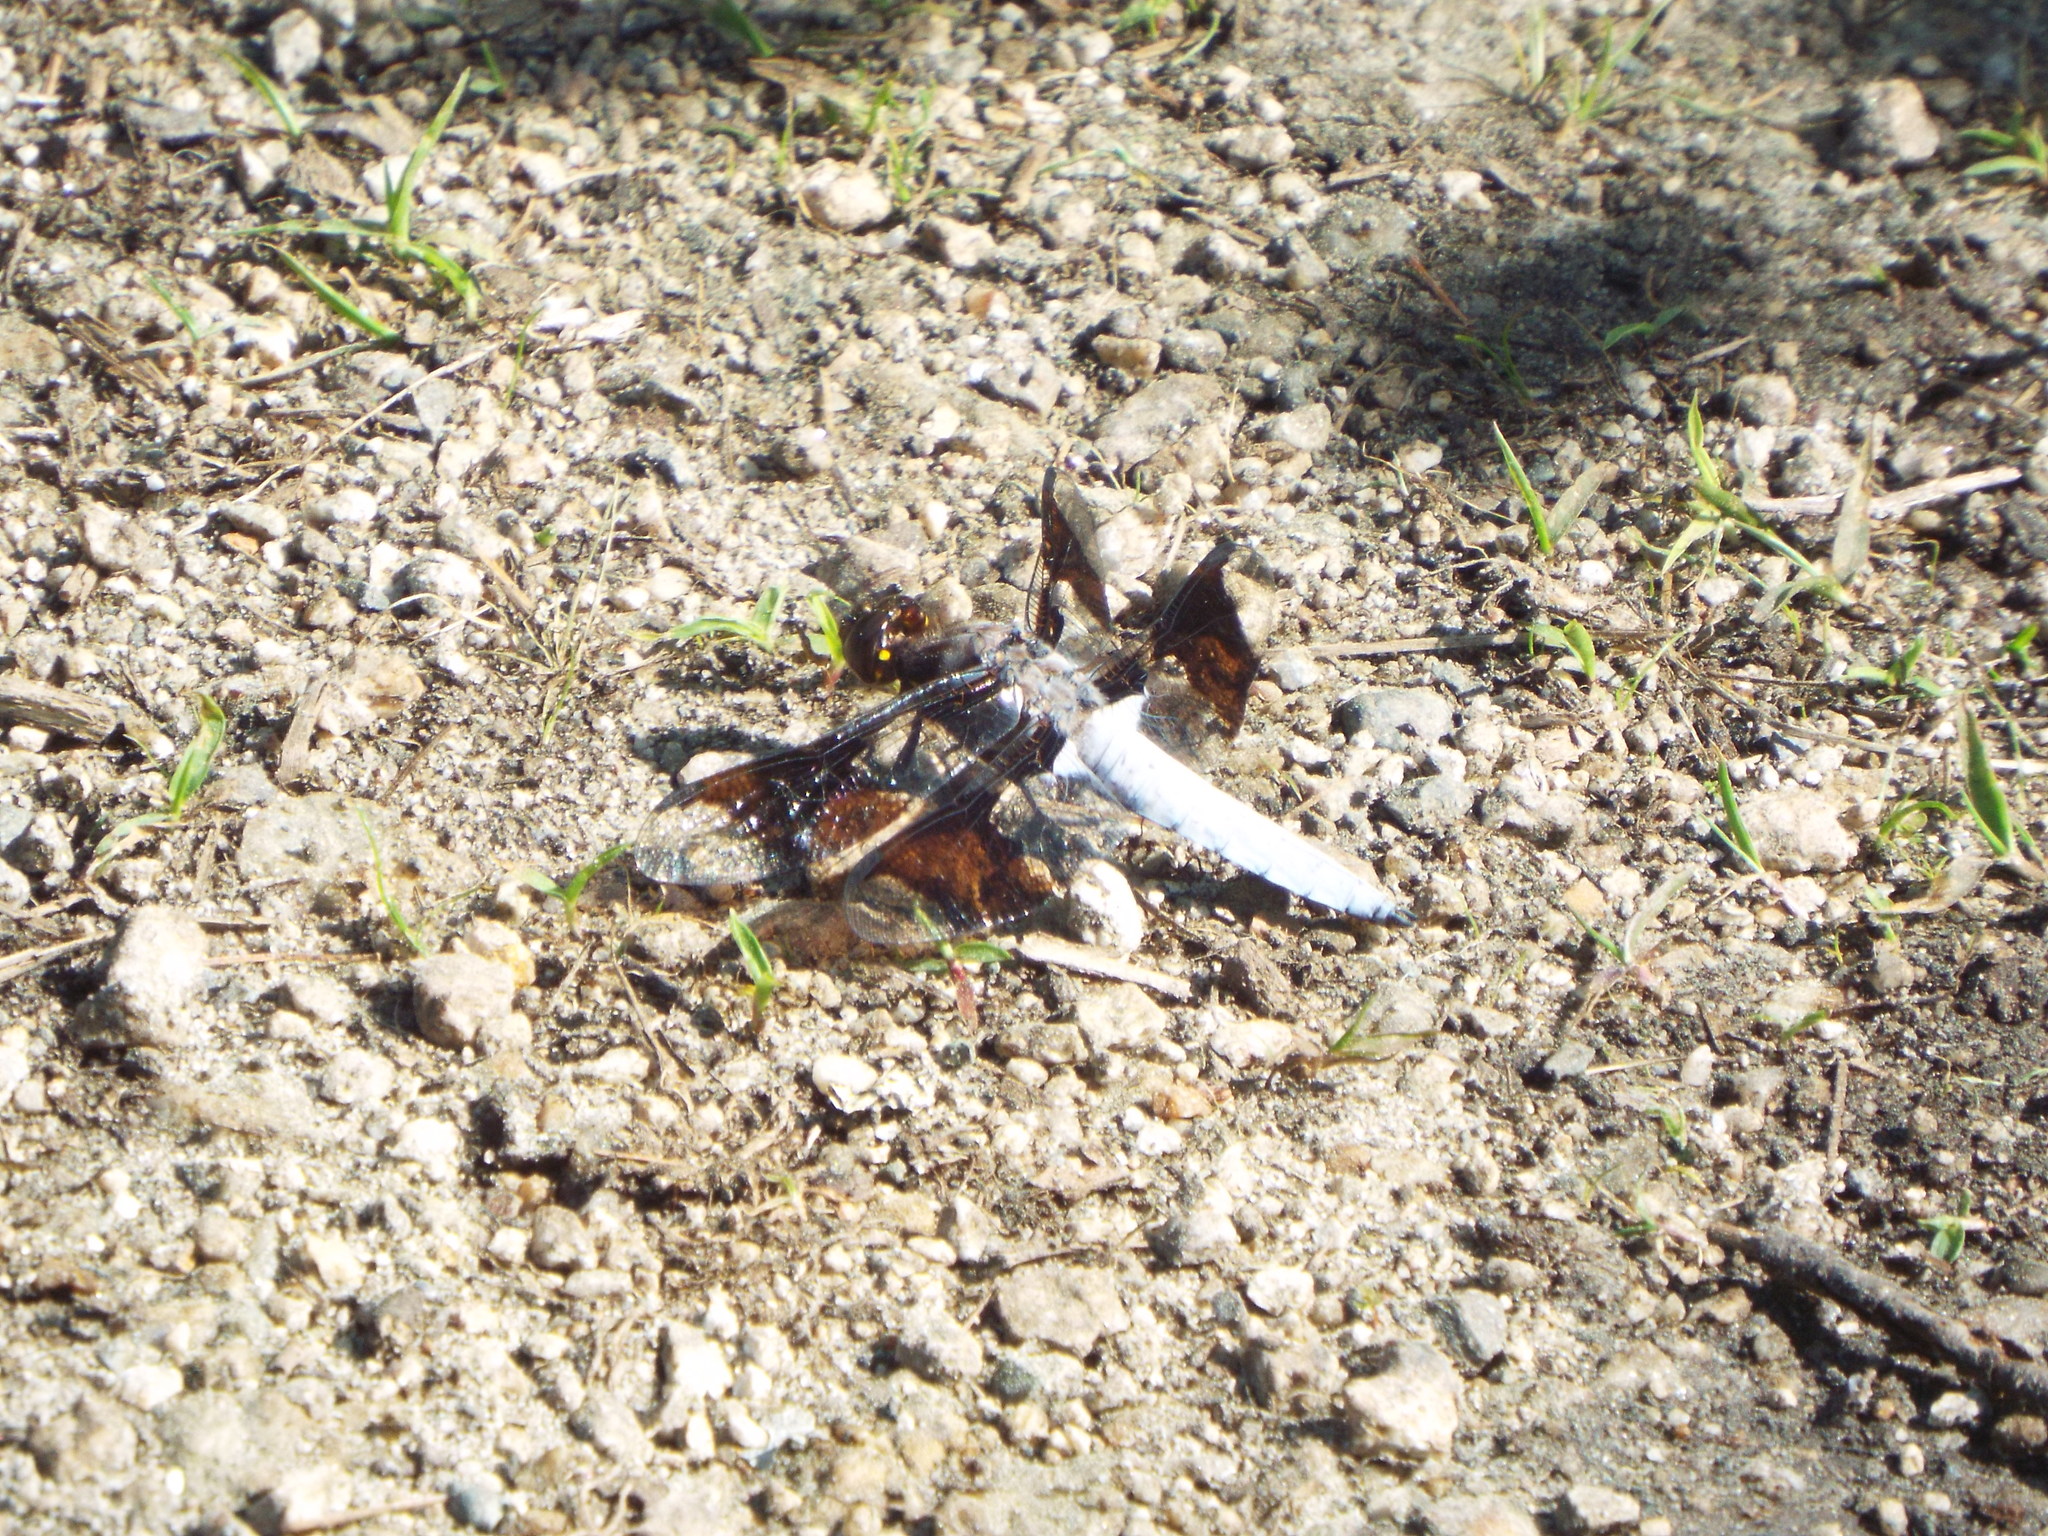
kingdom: Animalia
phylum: Arthropoda
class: Insecta
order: Odonata
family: Libellulidae
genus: Plathemis
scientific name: Plathemis lydia
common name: Common whitetail
